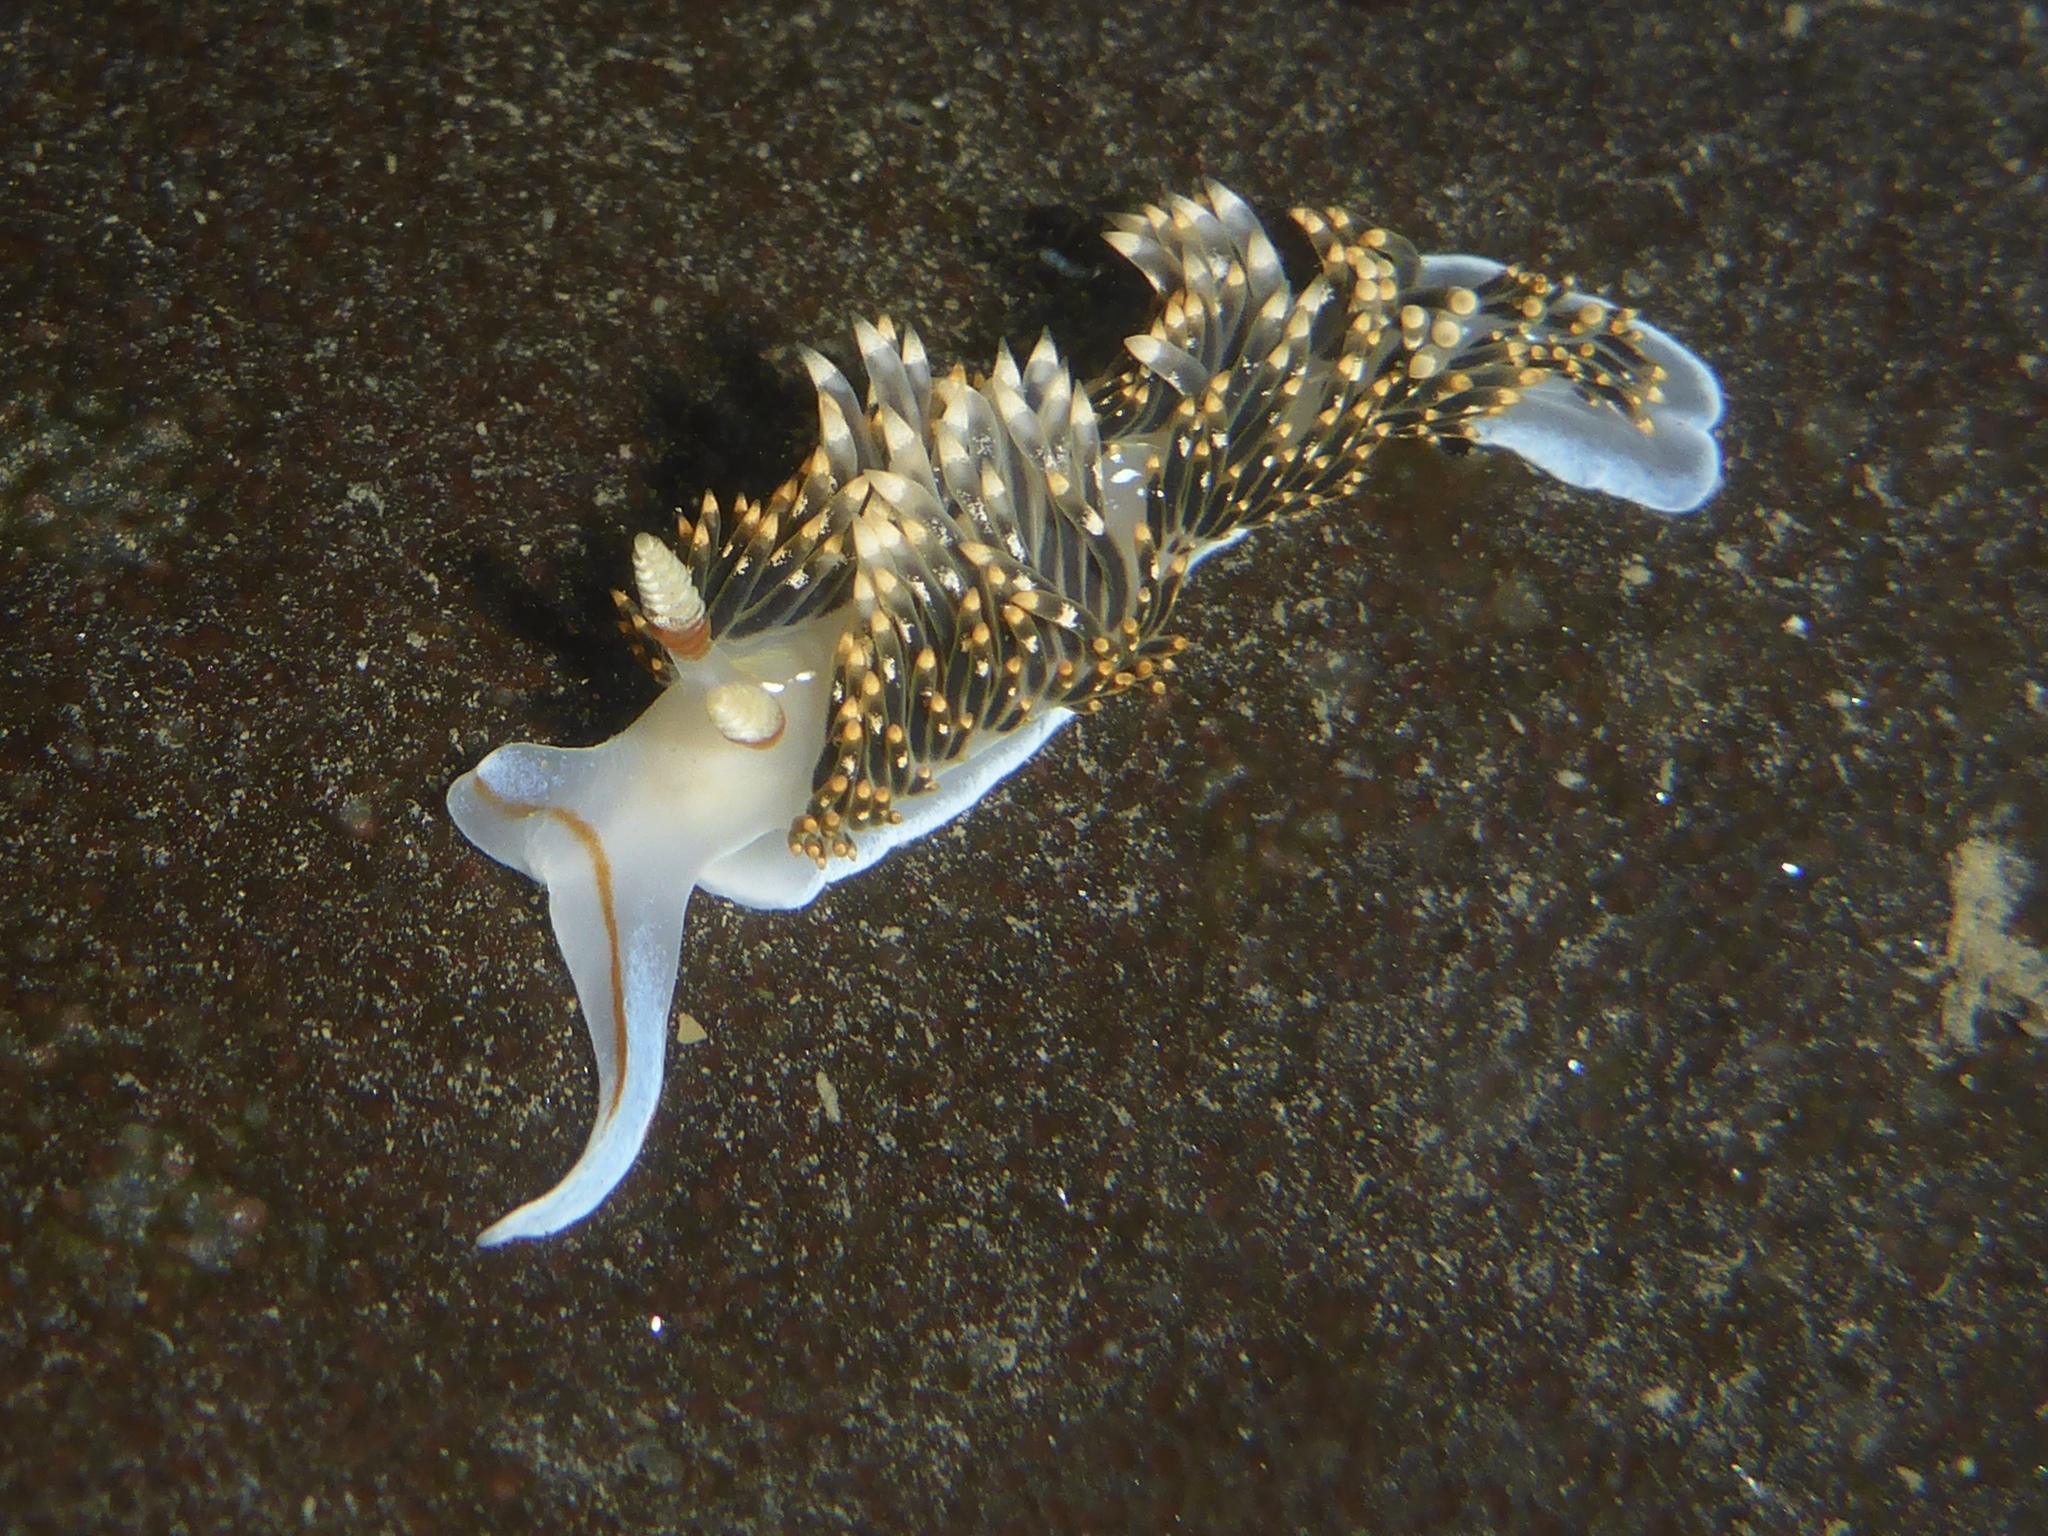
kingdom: Animalia
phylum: Mollusca
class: Gastropoda
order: Nudibranchia
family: Facelinidae
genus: Phidiana
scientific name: Phidiana hiltoni
